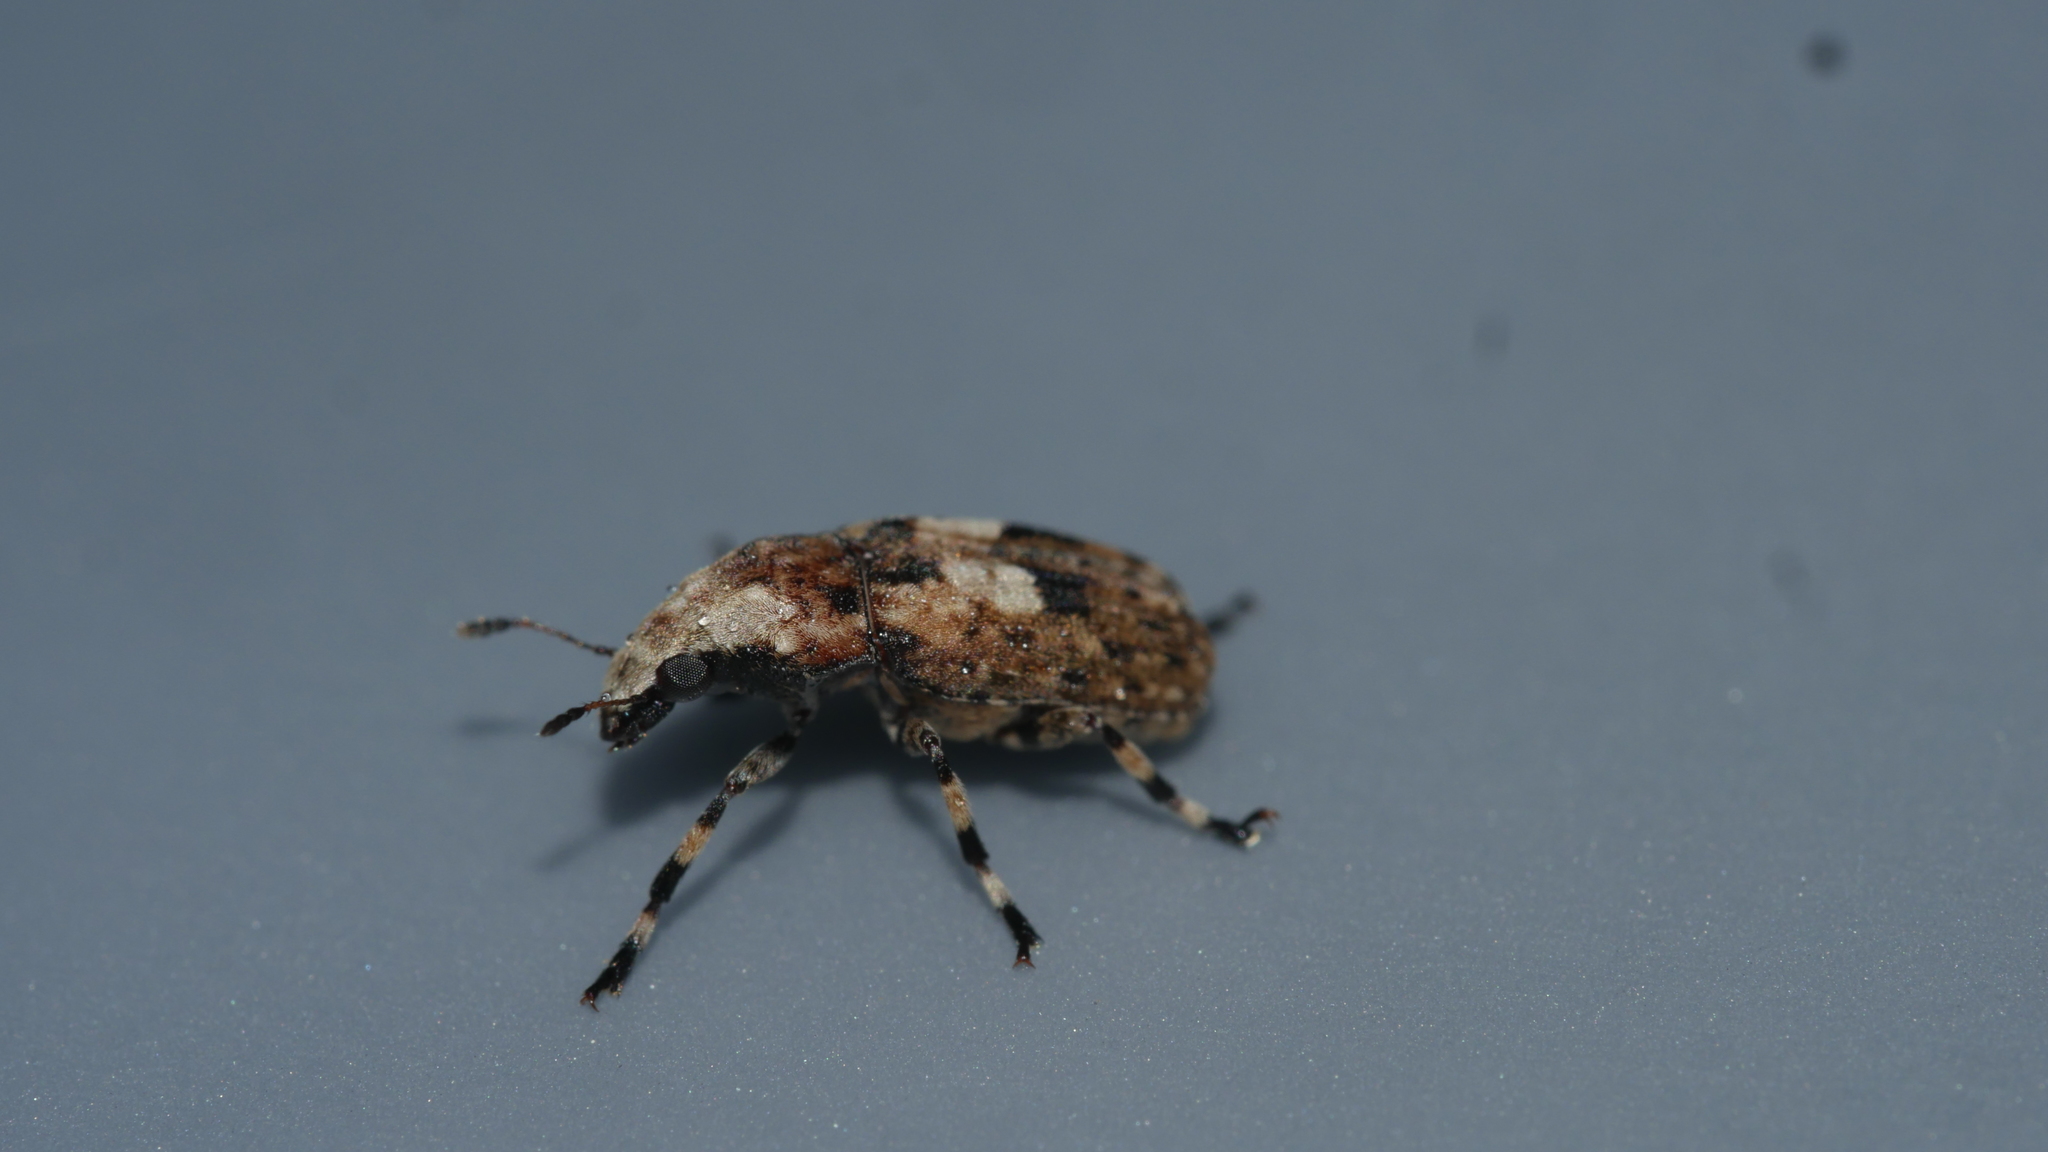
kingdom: Animalia
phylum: Arthropoda
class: Insecta
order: Coleoptera
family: Anthribidae
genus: Euparius
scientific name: Euparius marmoreus
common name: Marbled fungus weevil
